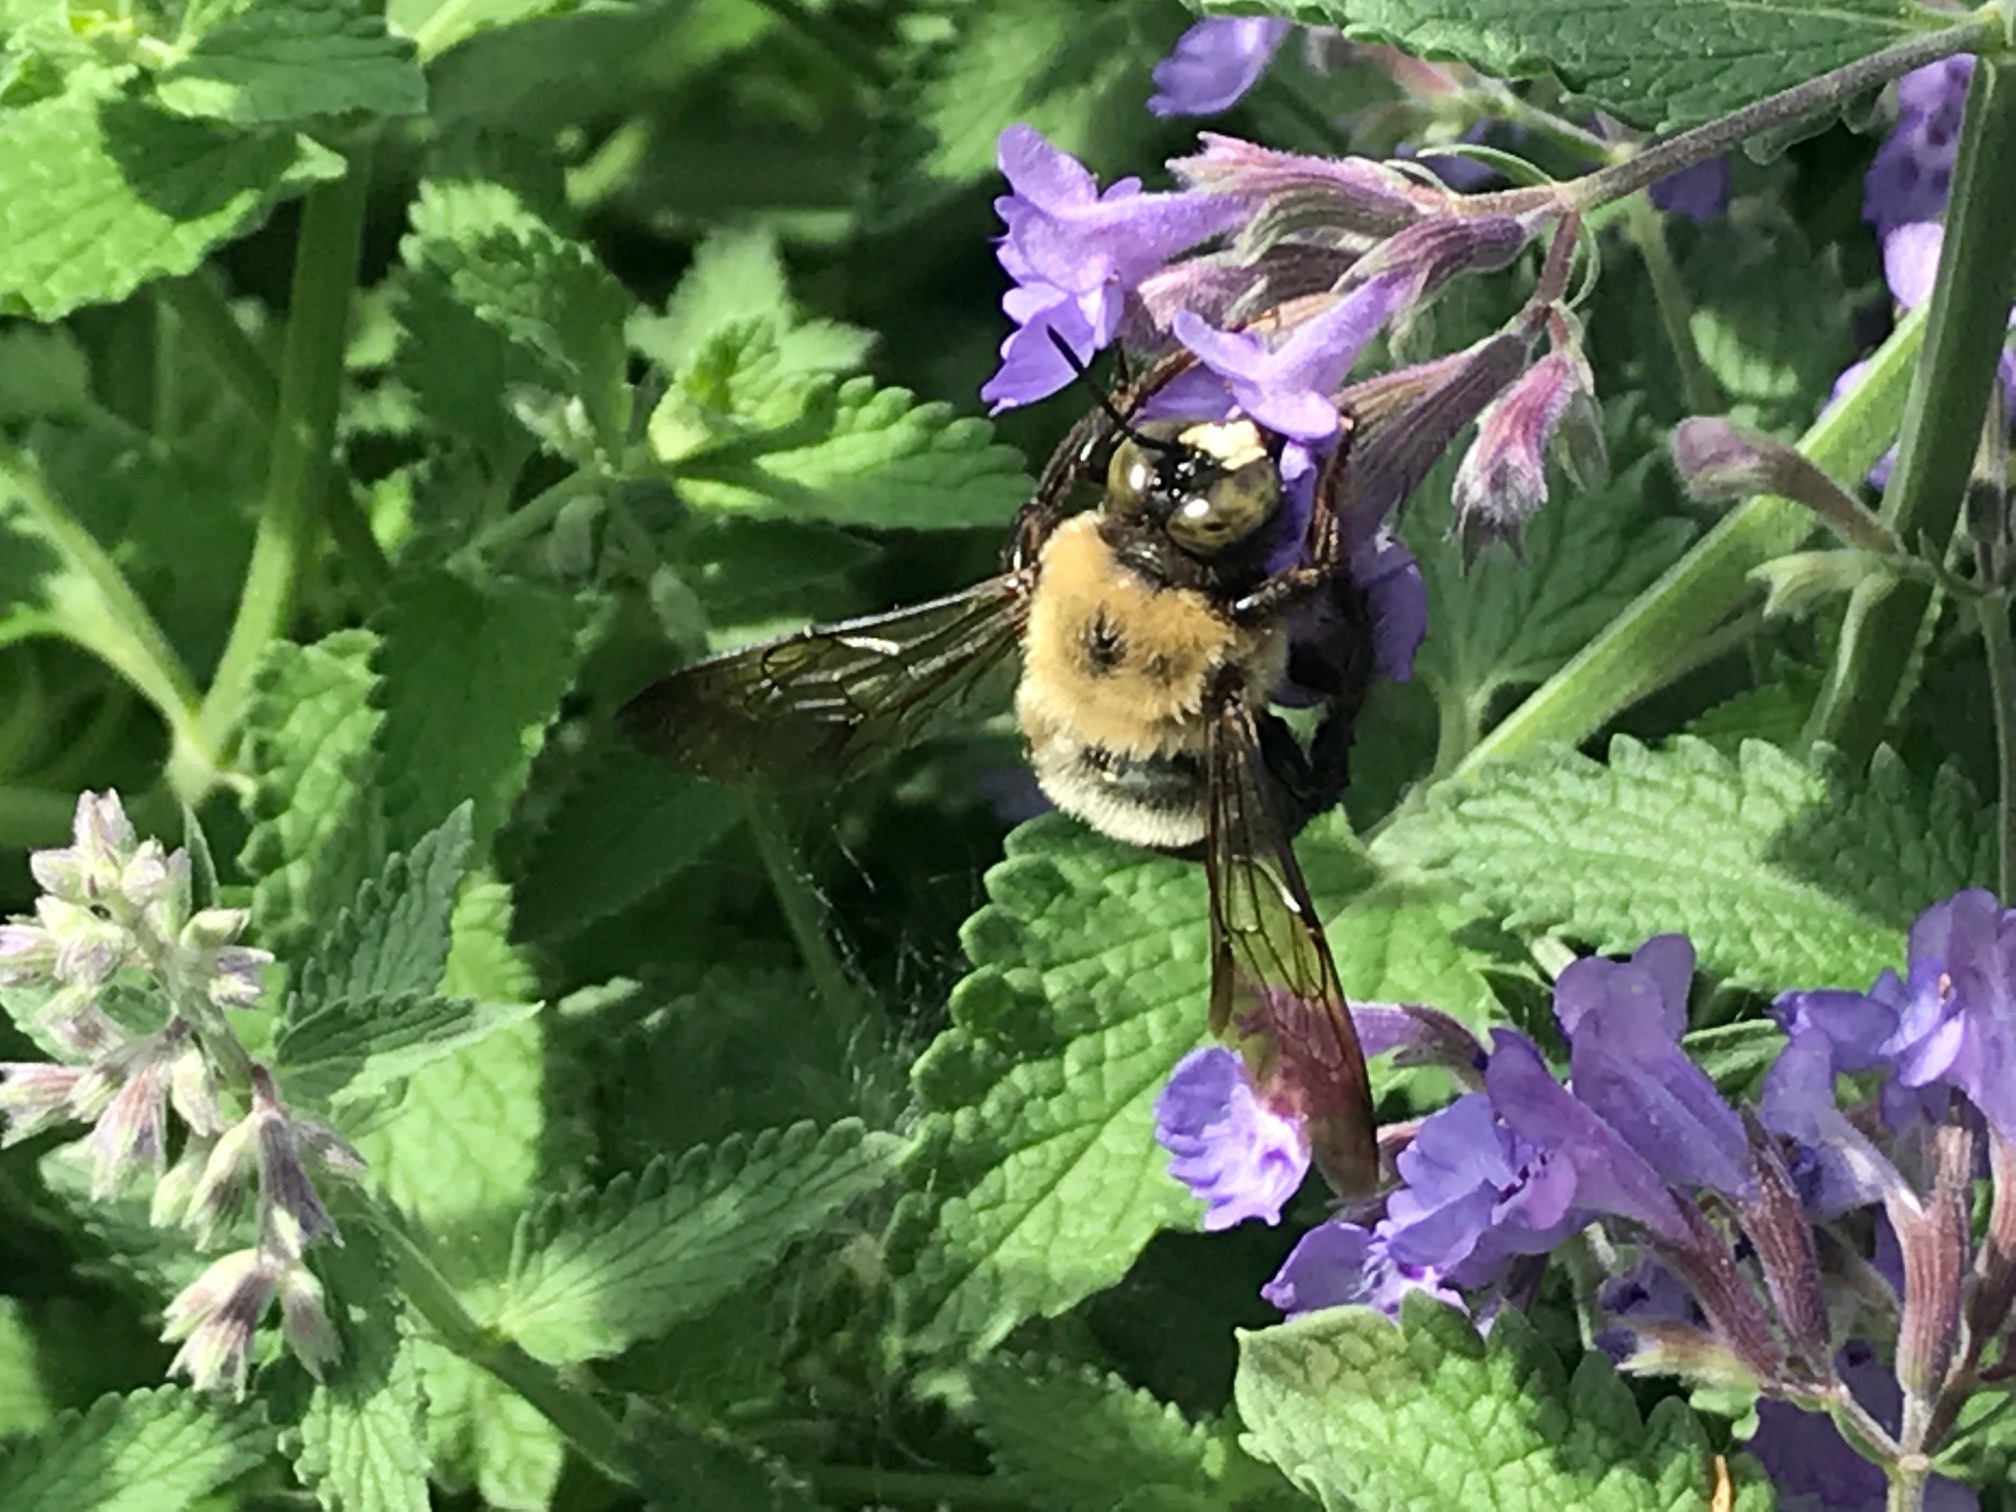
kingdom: Animalia
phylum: Arthropoda
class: Insecta
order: Hymenoptera
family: Apidae
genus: Xylocopa
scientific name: Xylocopa virginica
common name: Carpenter bee
